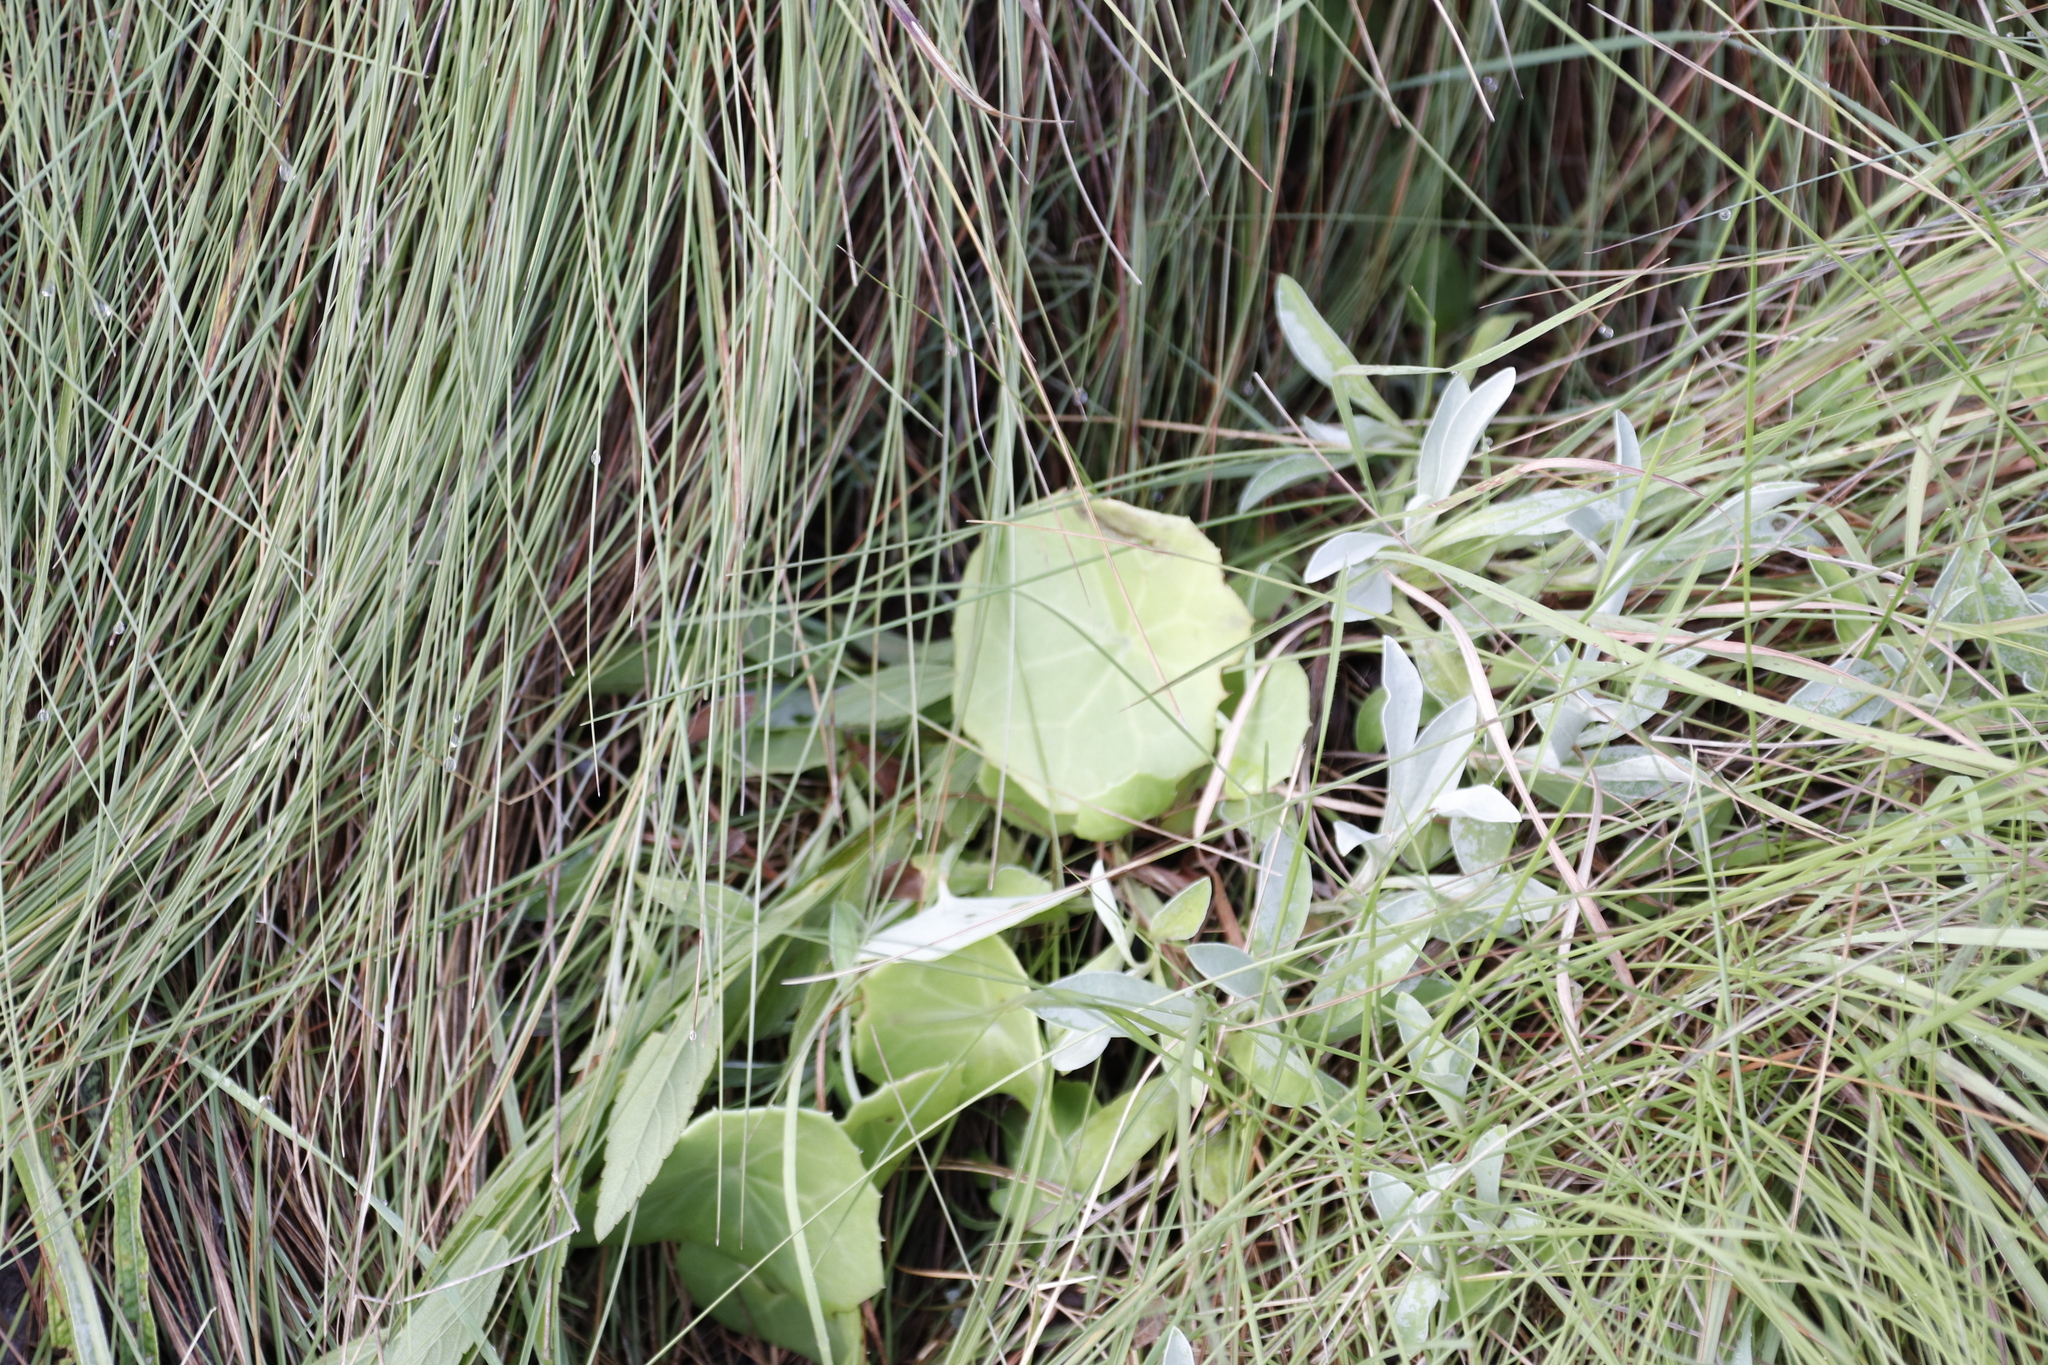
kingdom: Plantae
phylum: Tracheophyta
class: Magnoliopsida
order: Asterales
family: Asteraceae
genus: Senecio
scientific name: Senecio oxyriifolius
